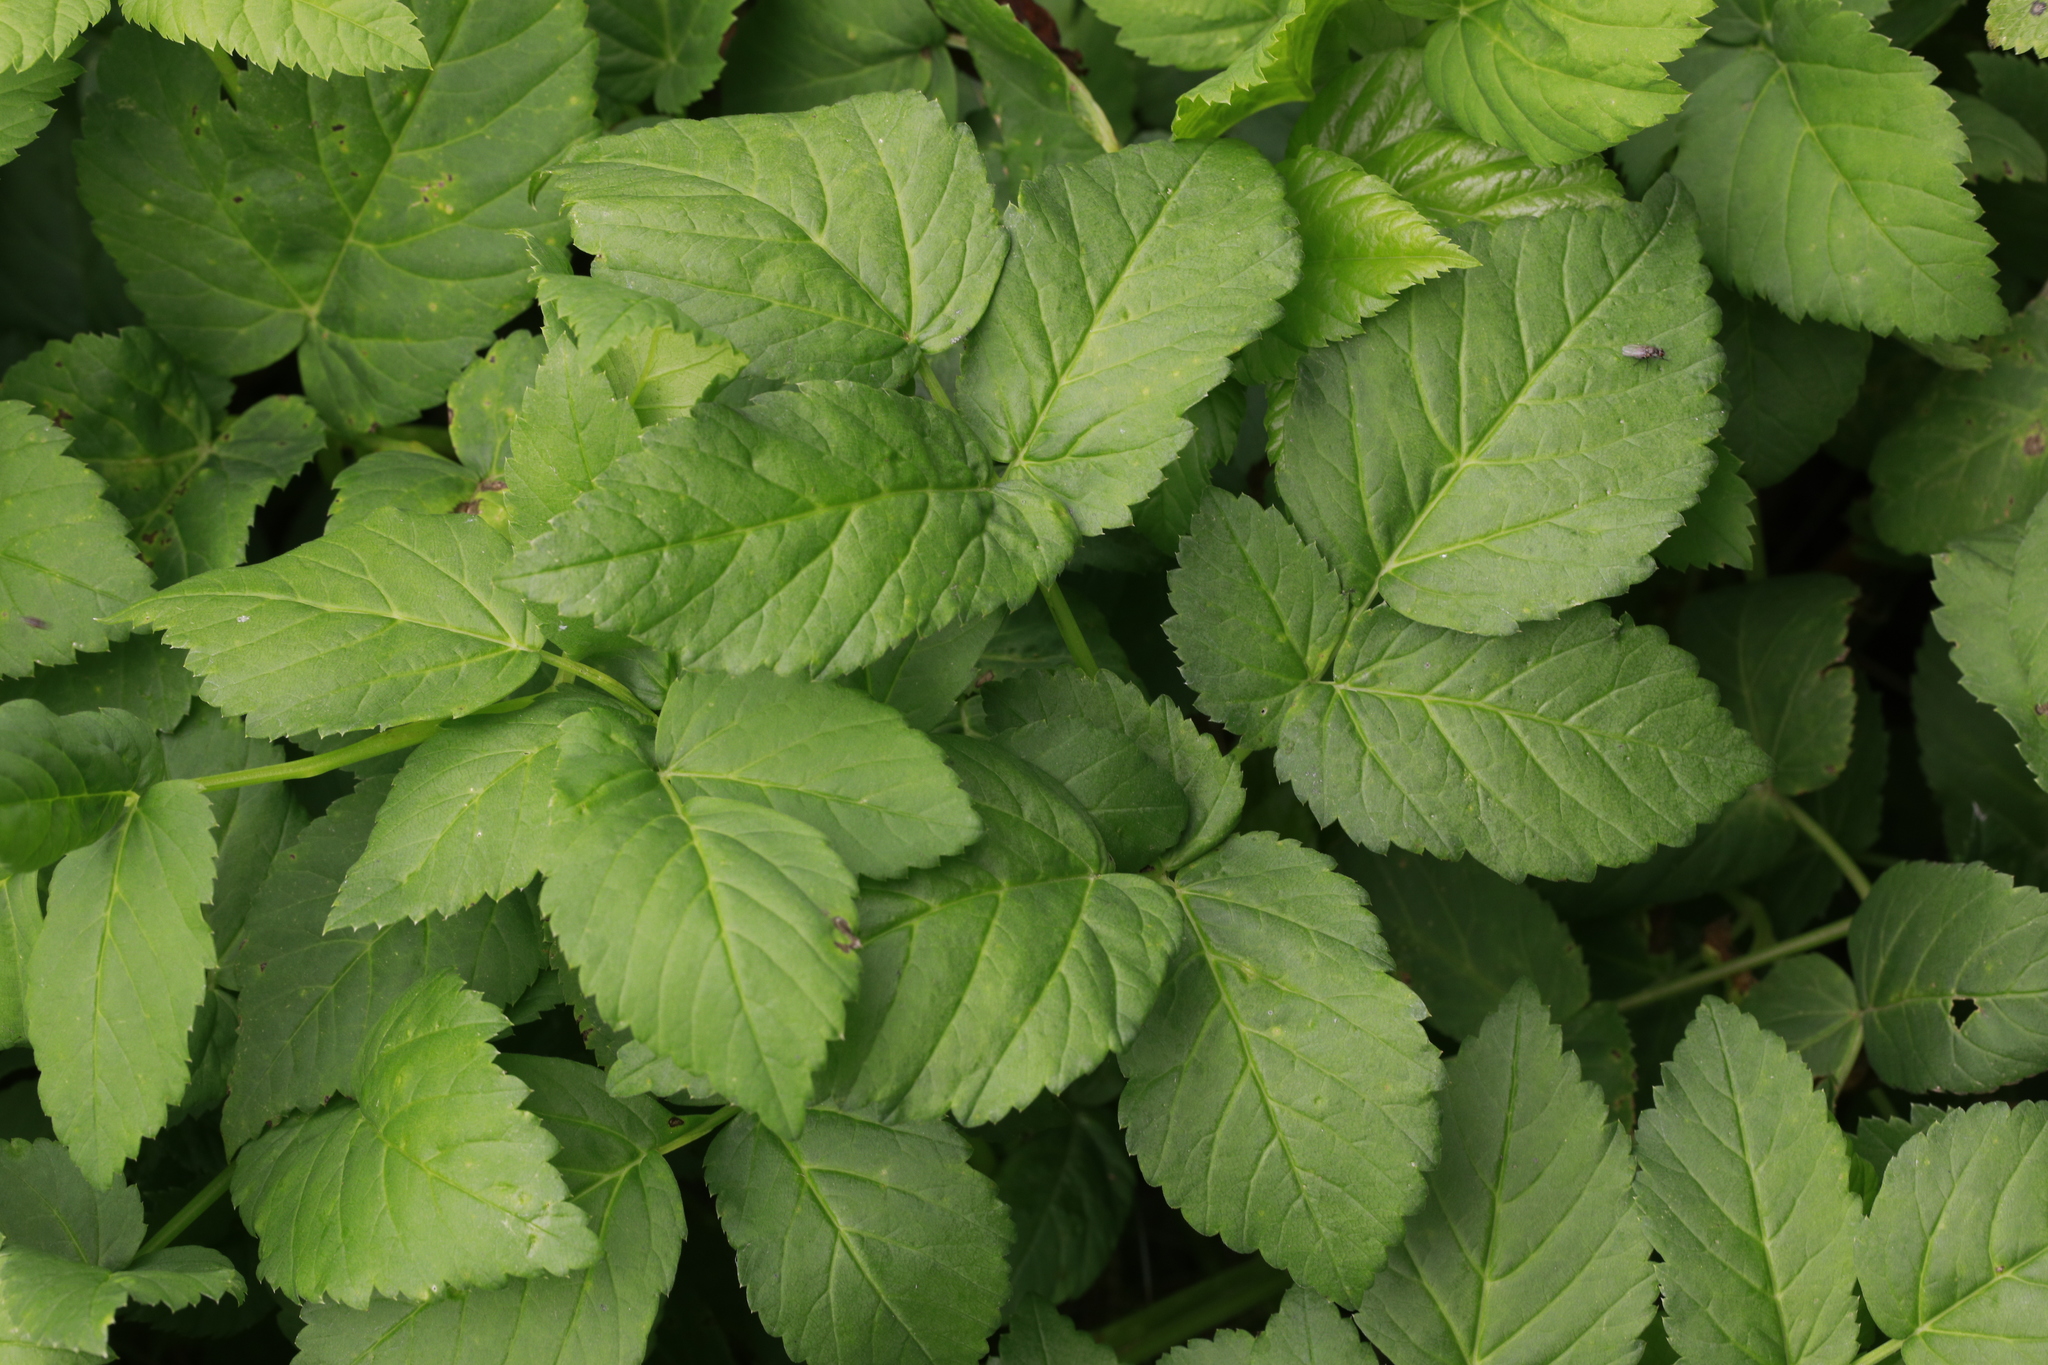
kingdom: Plantae
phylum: Tracheophyta
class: Magnoliopsida
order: Apiales
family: Apiaceae
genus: Aegopodium
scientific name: Aegopodium podagraria
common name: Ground-elder
